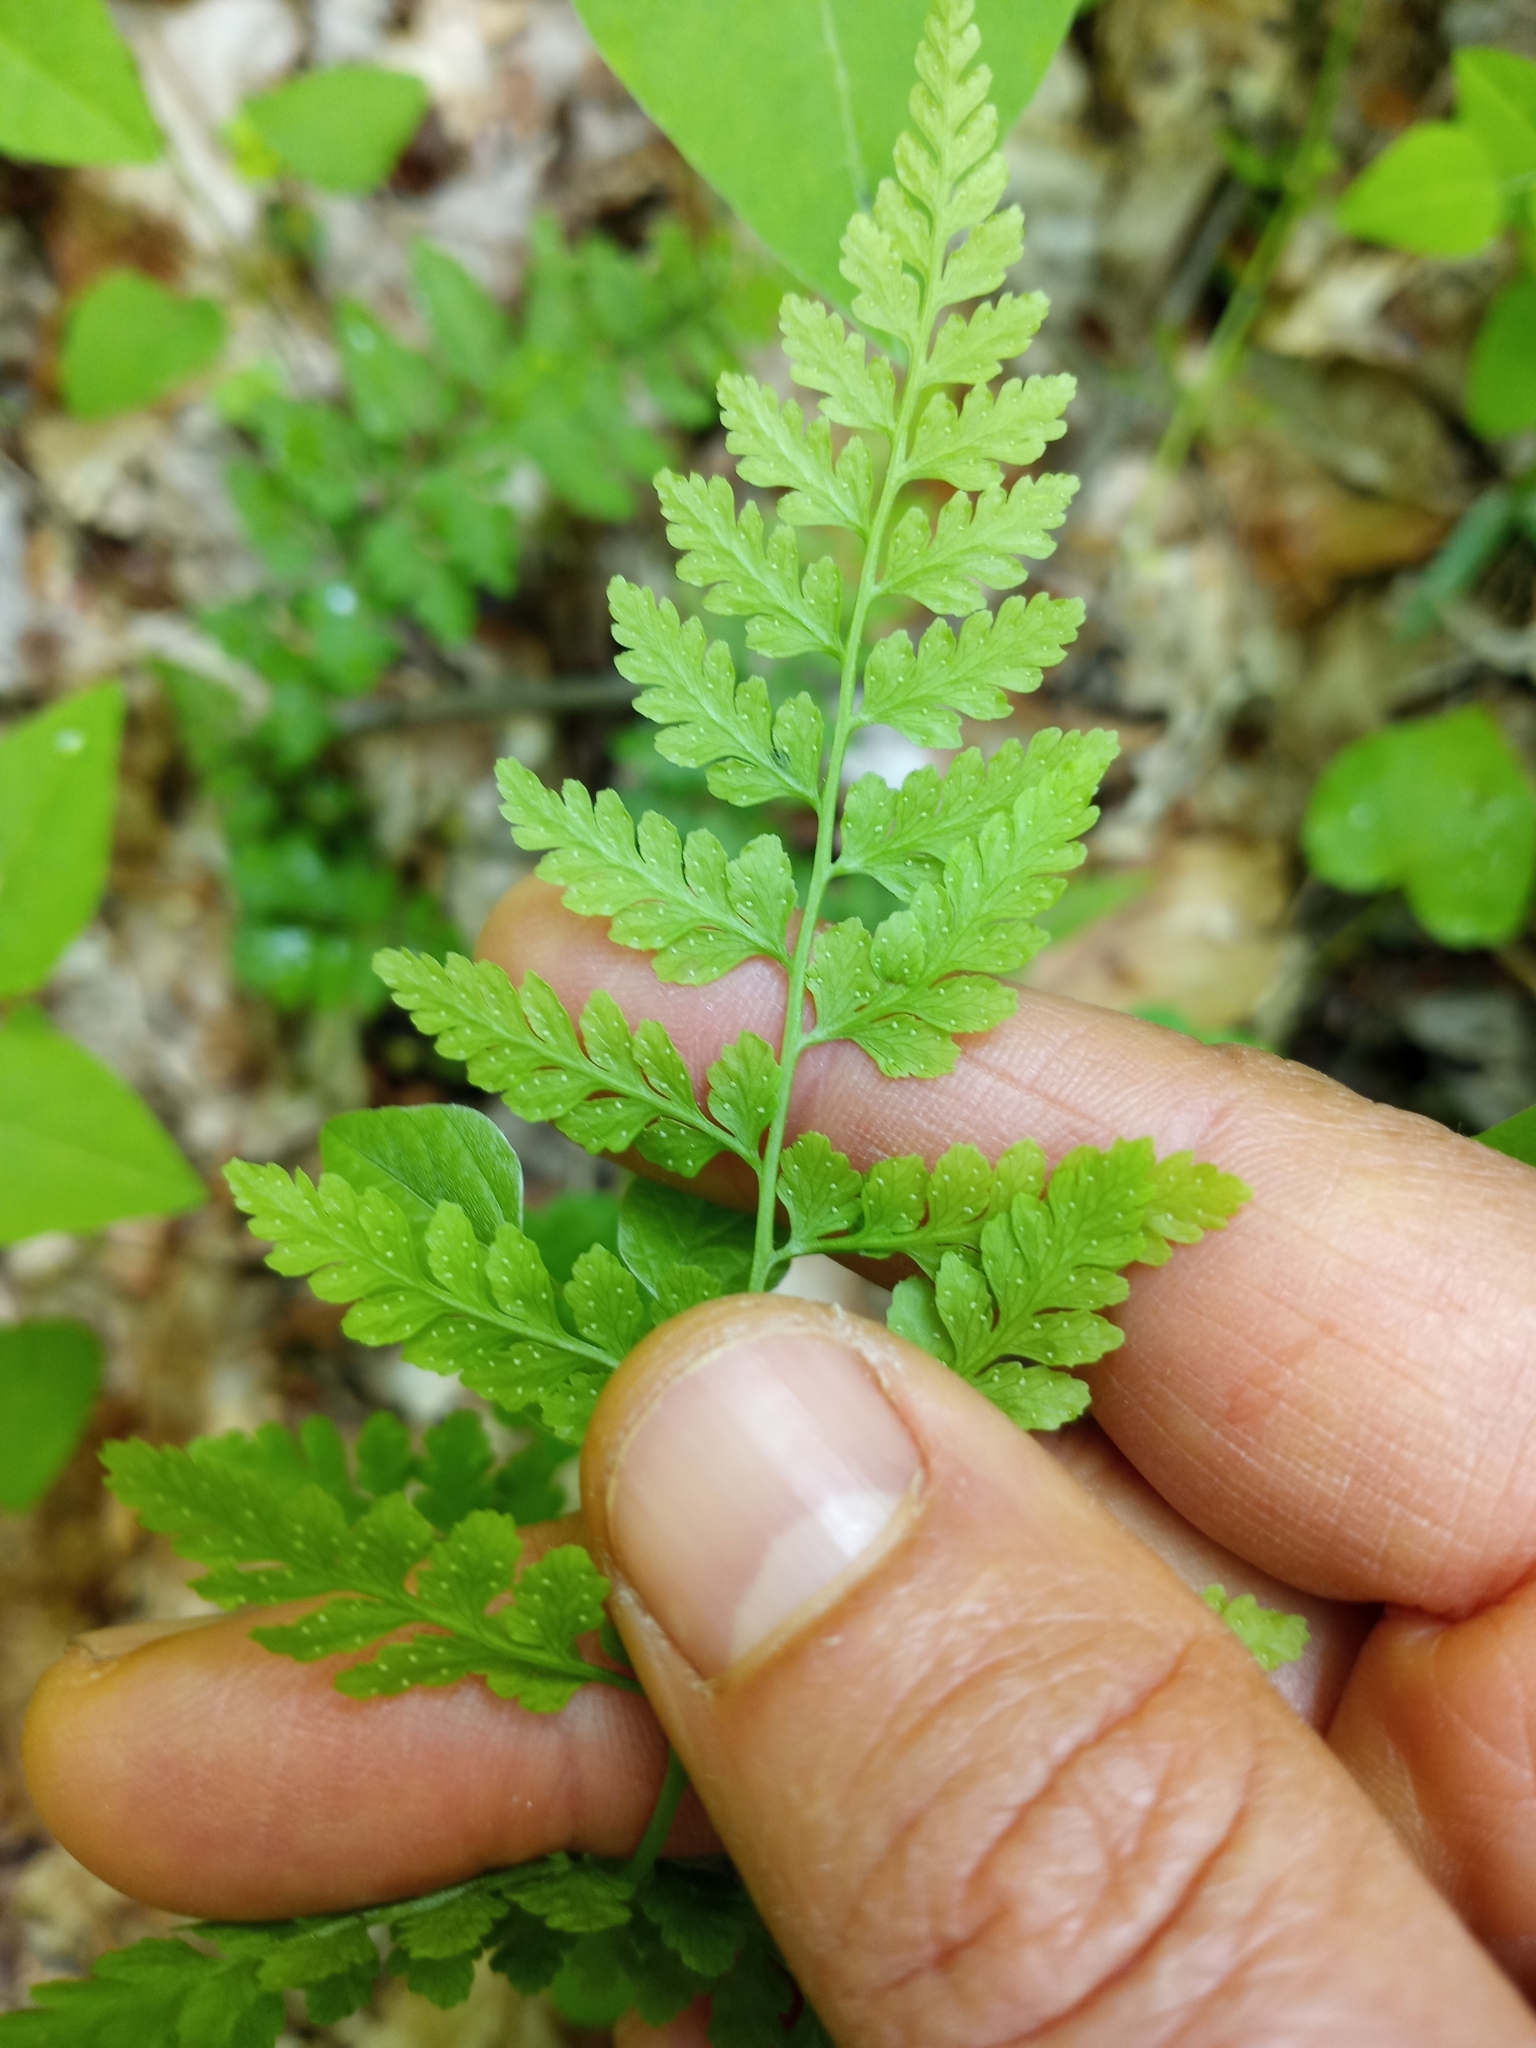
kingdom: Plantae
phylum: Tracheophyta
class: Polypodiopsida
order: Polypodiales
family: Cystopteridaceae
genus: Cystopteris
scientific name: Cystopteris protrusa
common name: Lowland brittle fern
